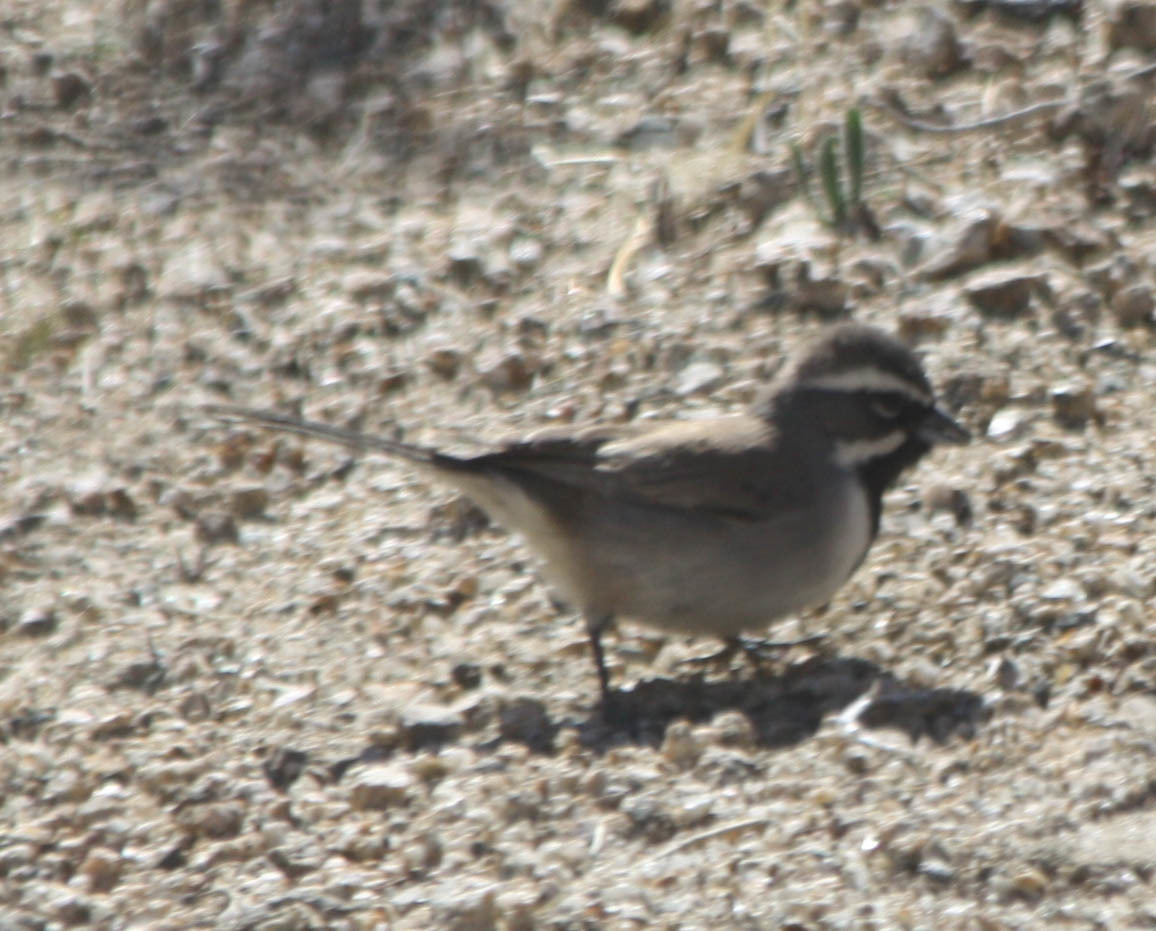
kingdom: Animalia
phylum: Chordata
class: Aves
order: Passeriformes
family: Passerellidae
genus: Amphispiza
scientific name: Amphispiza bilineata
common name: Black-throated sparrow
